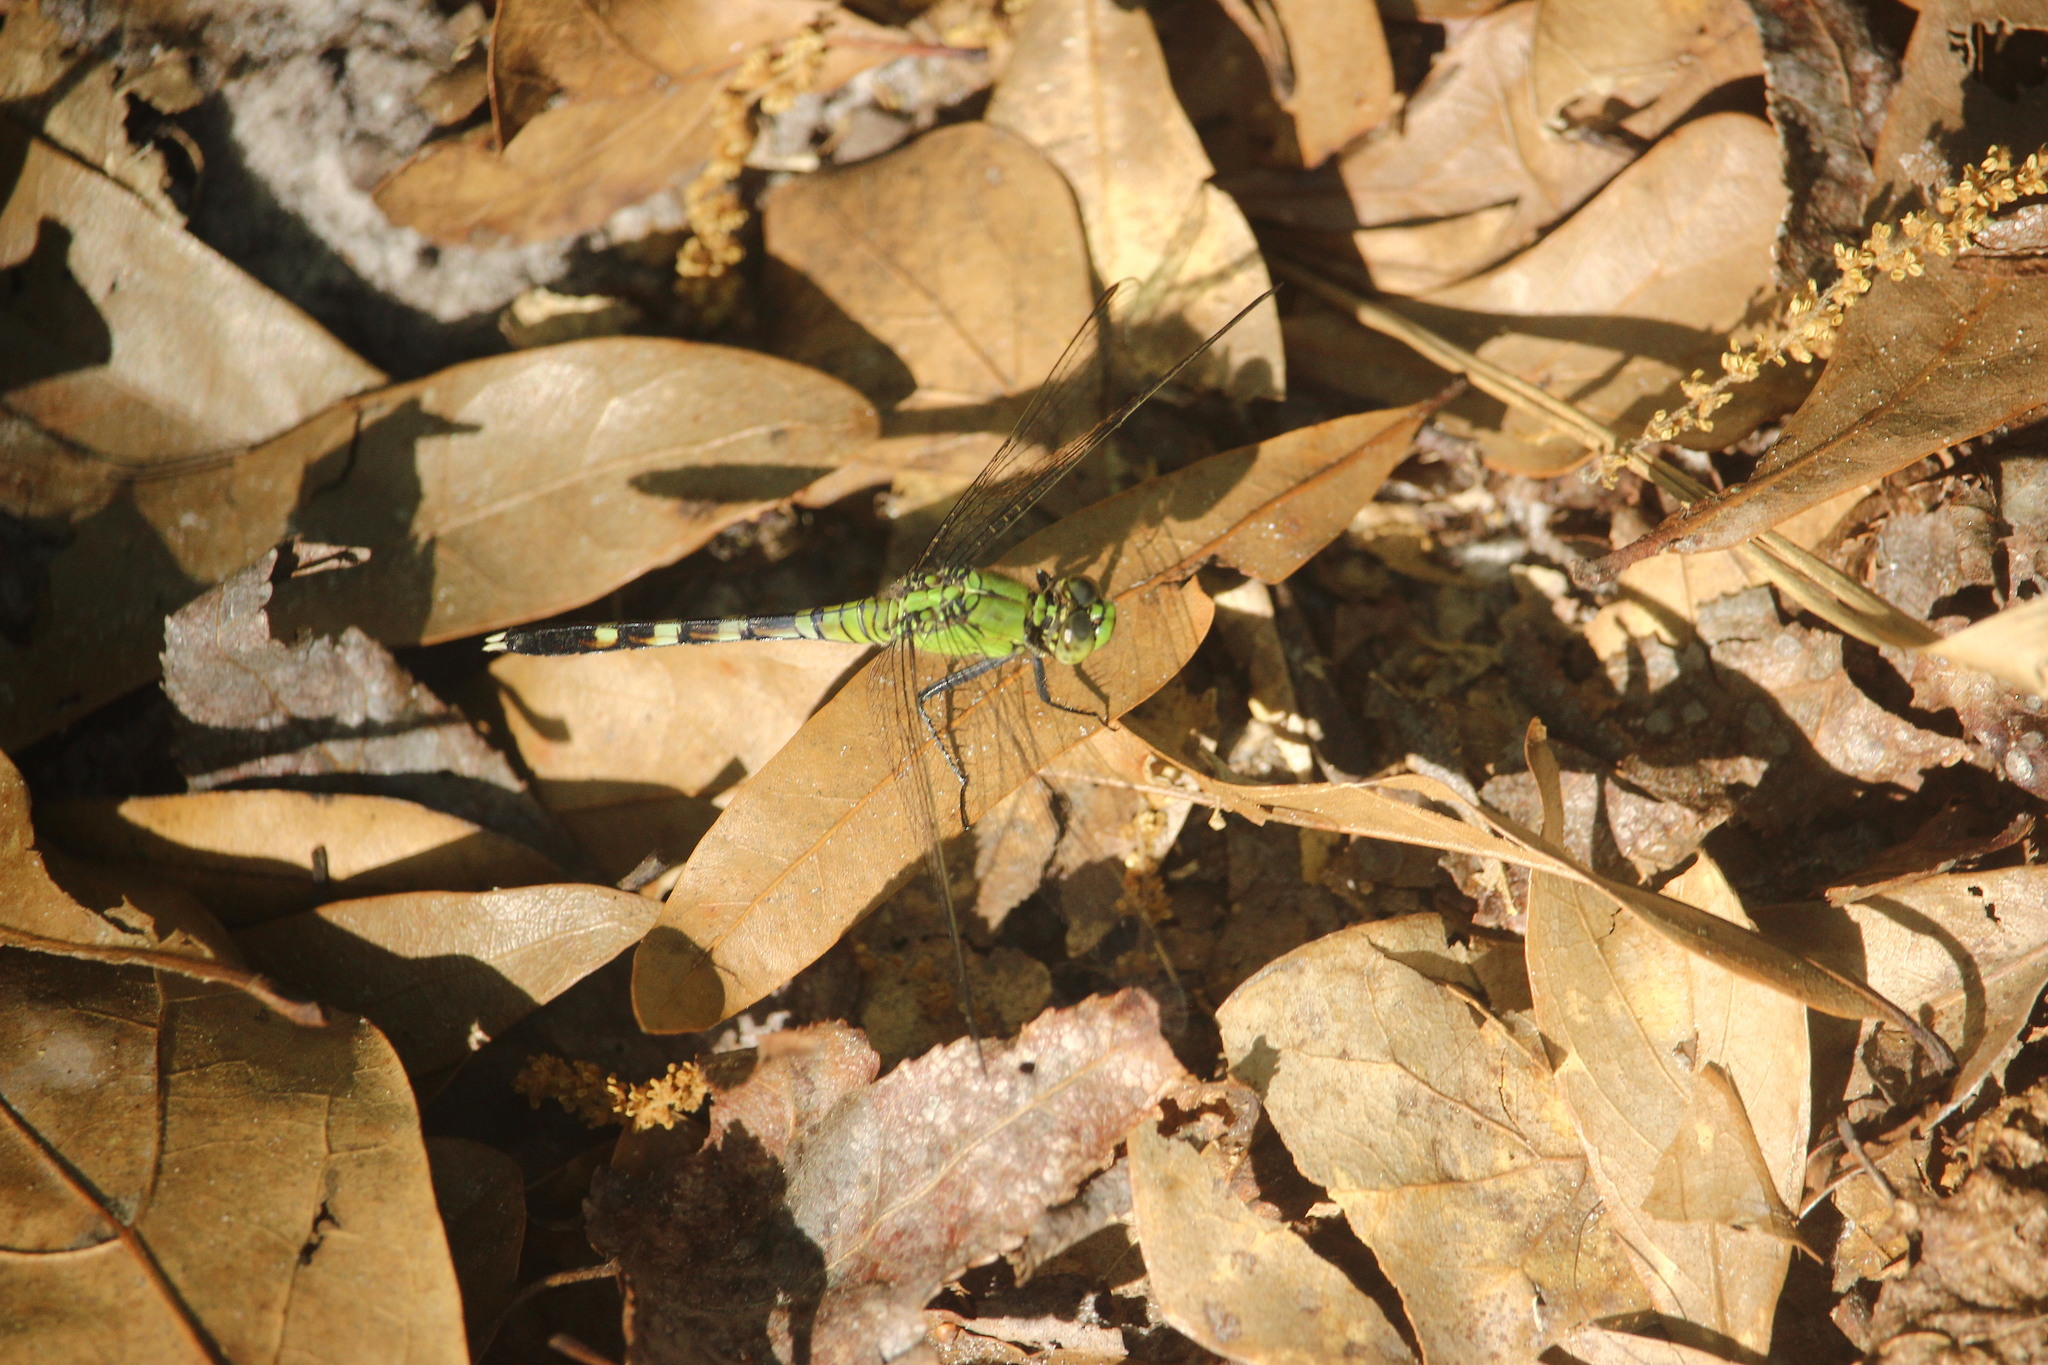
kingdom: Animalia
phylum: Arthropoda
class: Insecta
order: Odonata
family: Libellulidae
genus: Erythemis
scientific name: Erythemis simplicicollis
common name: Eastern pondhawk
